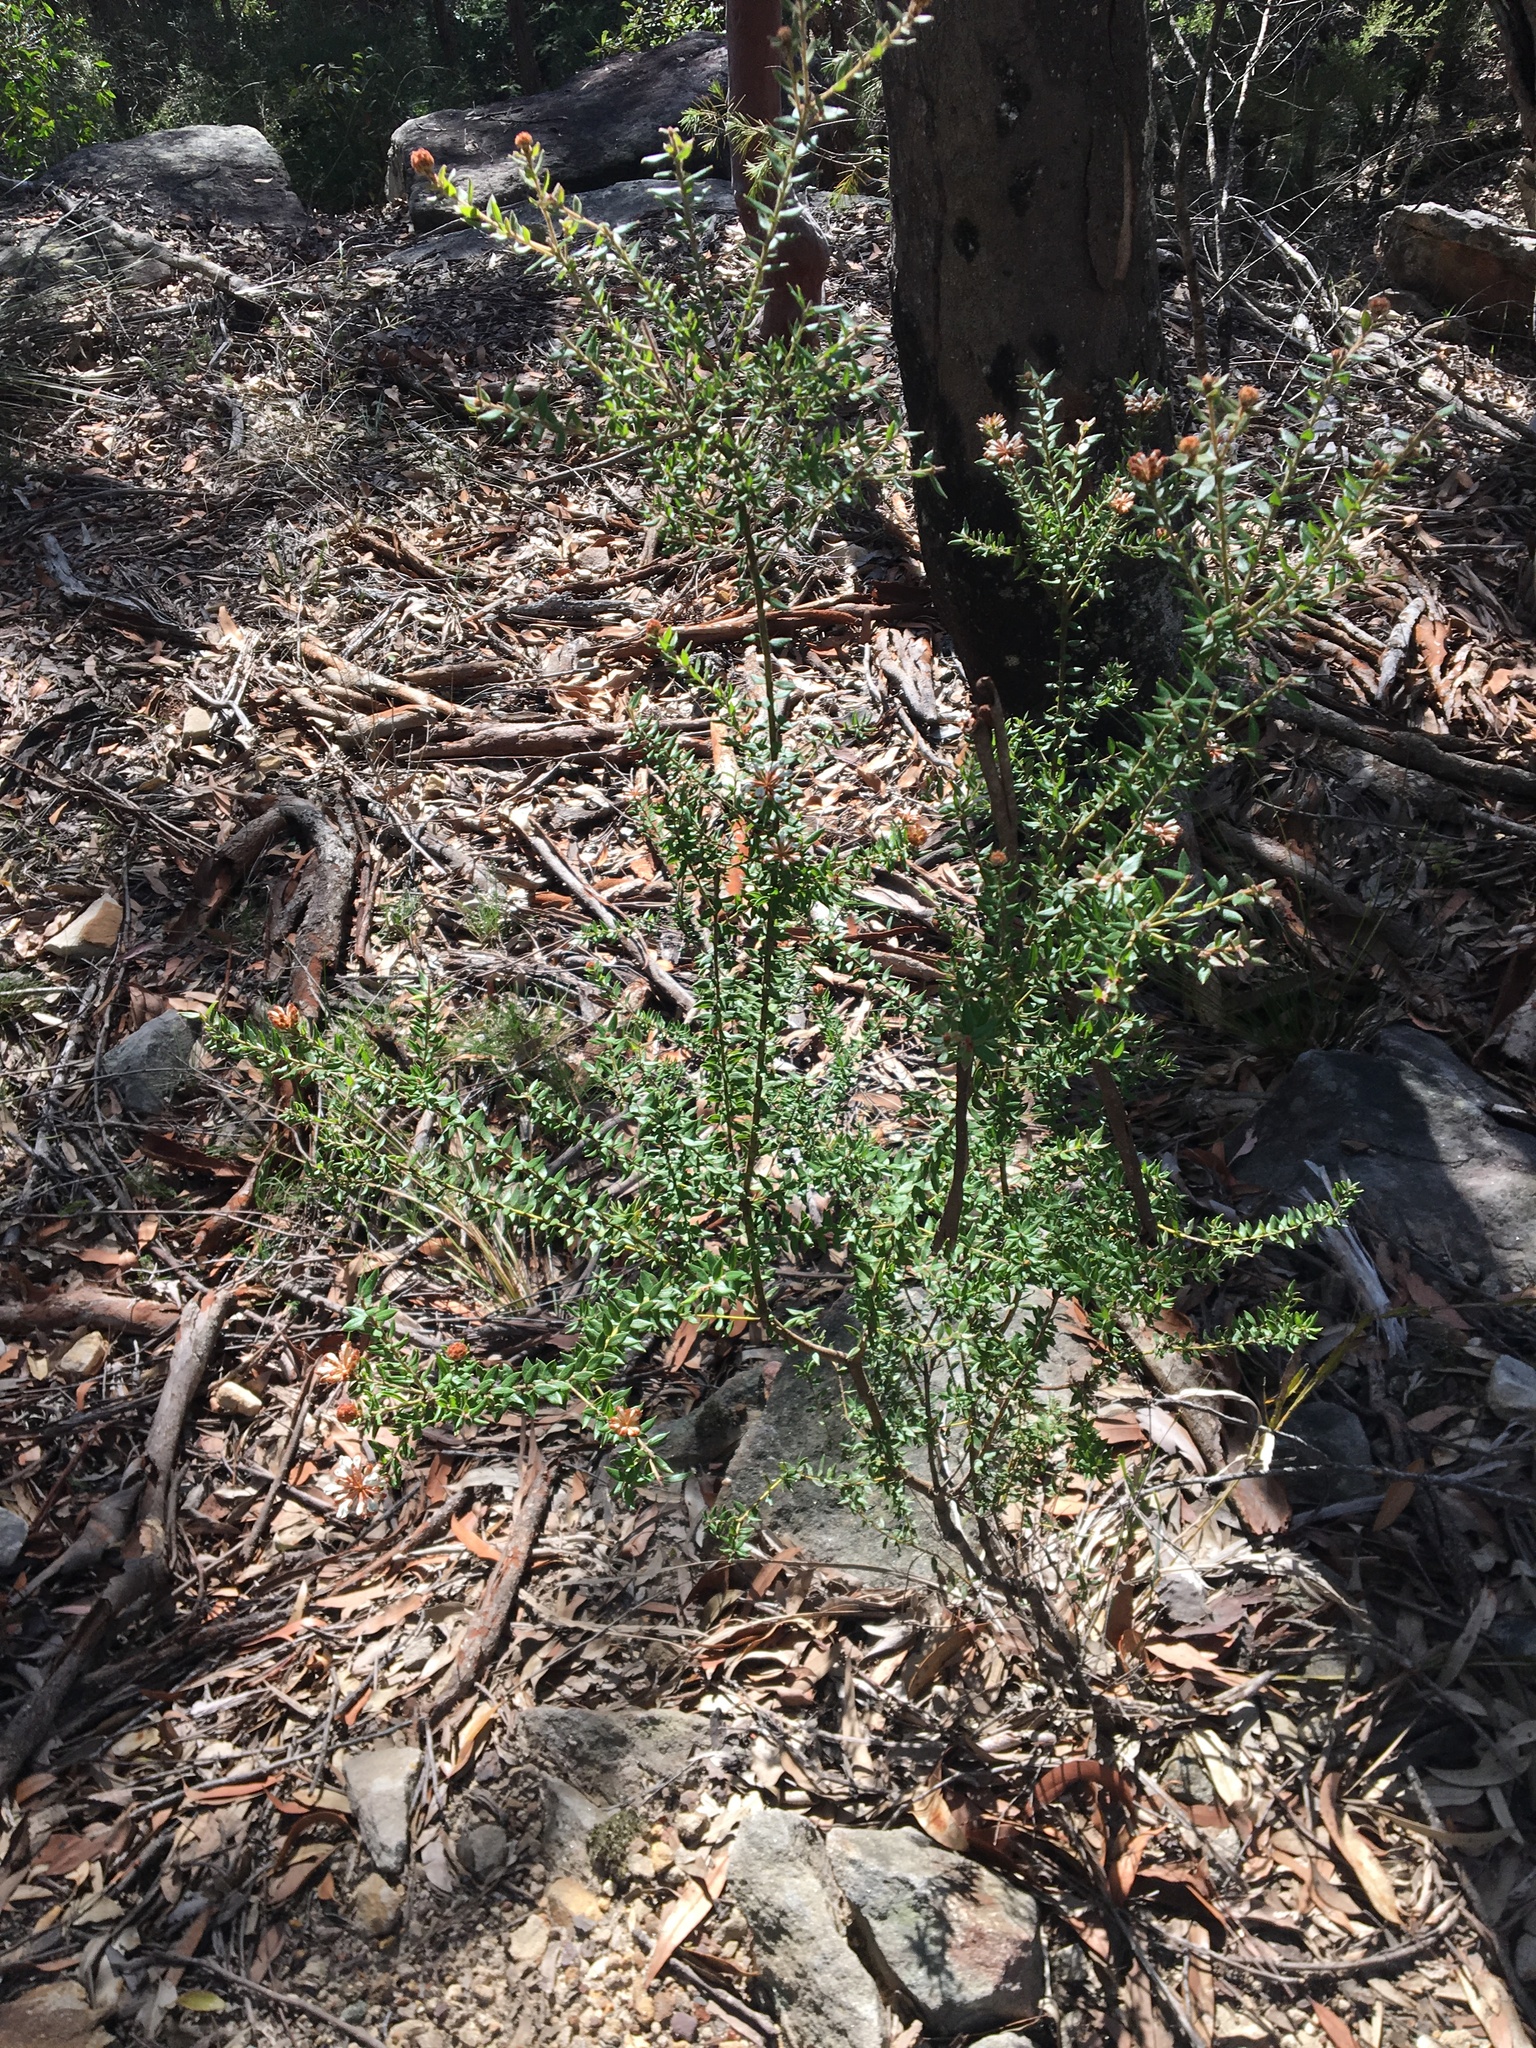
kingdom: Plantae
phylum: Tracheophyta
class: Magnoliopsida
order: Proteales
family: Proteaceae
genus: Grevillea
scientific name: Grevillea buxifolia
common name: Grey spiderflower
